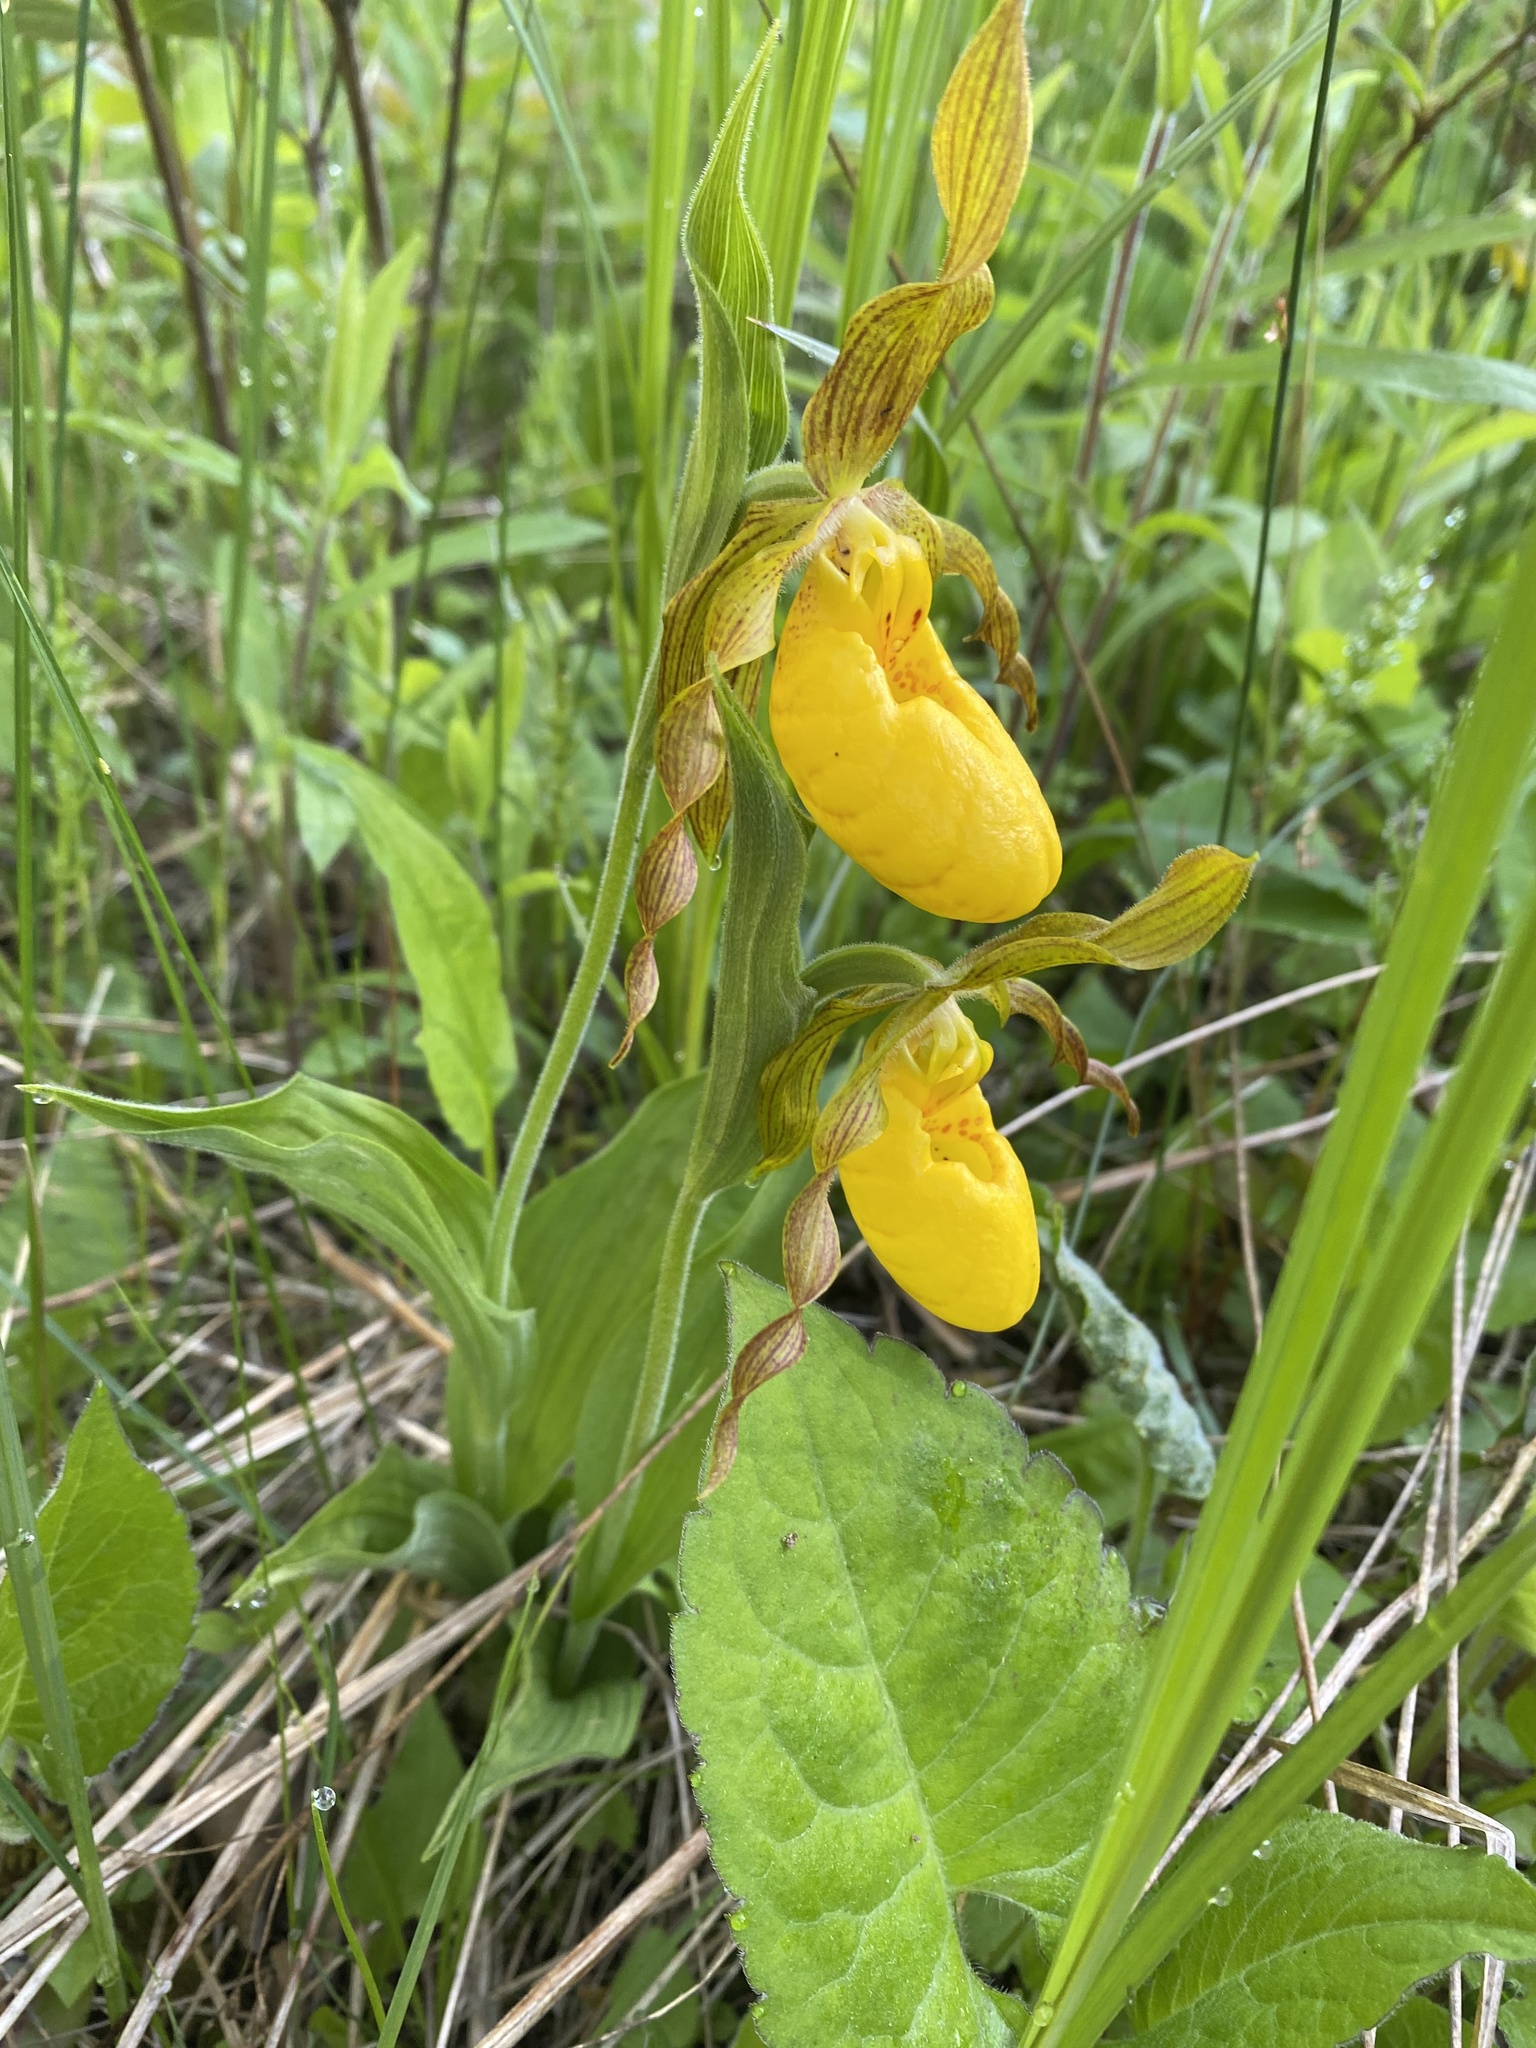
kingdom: Plantae
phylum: Tracheophyta
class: Liliopsida
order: Asparagales
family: Orchidaceae
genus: Cypripedium
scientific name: Cypripedium parviflorum
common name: American yellow lady's-slipper
